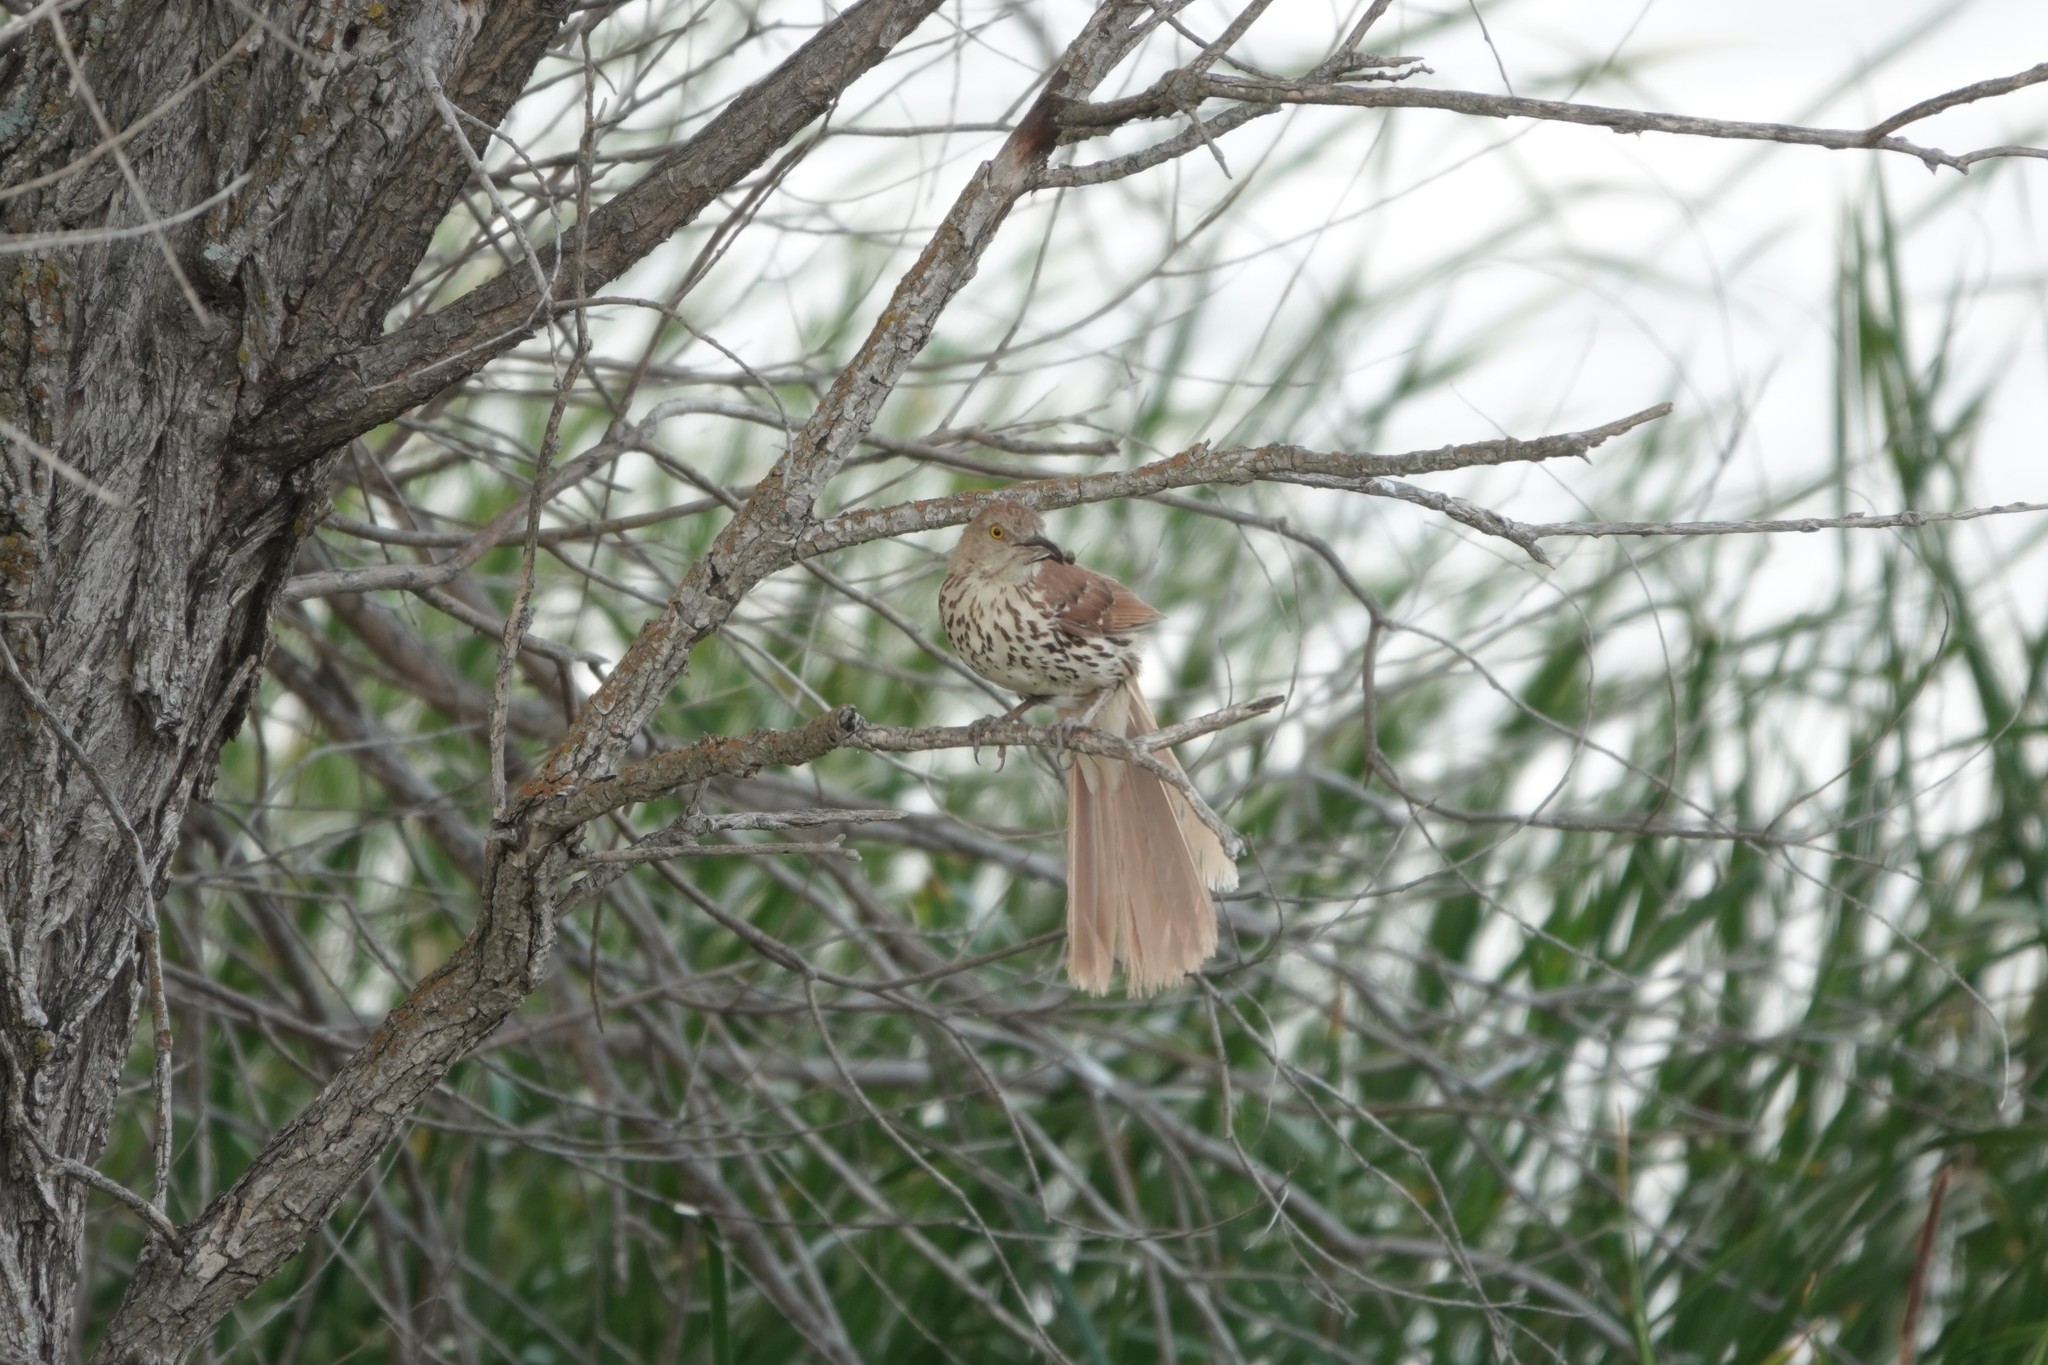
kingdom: Animalia
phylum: Chordata
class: Aves
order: Passeriformes
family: Mimidae
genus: Toxostoma
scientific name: Toxostoma rufum
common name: Brown thrasher
